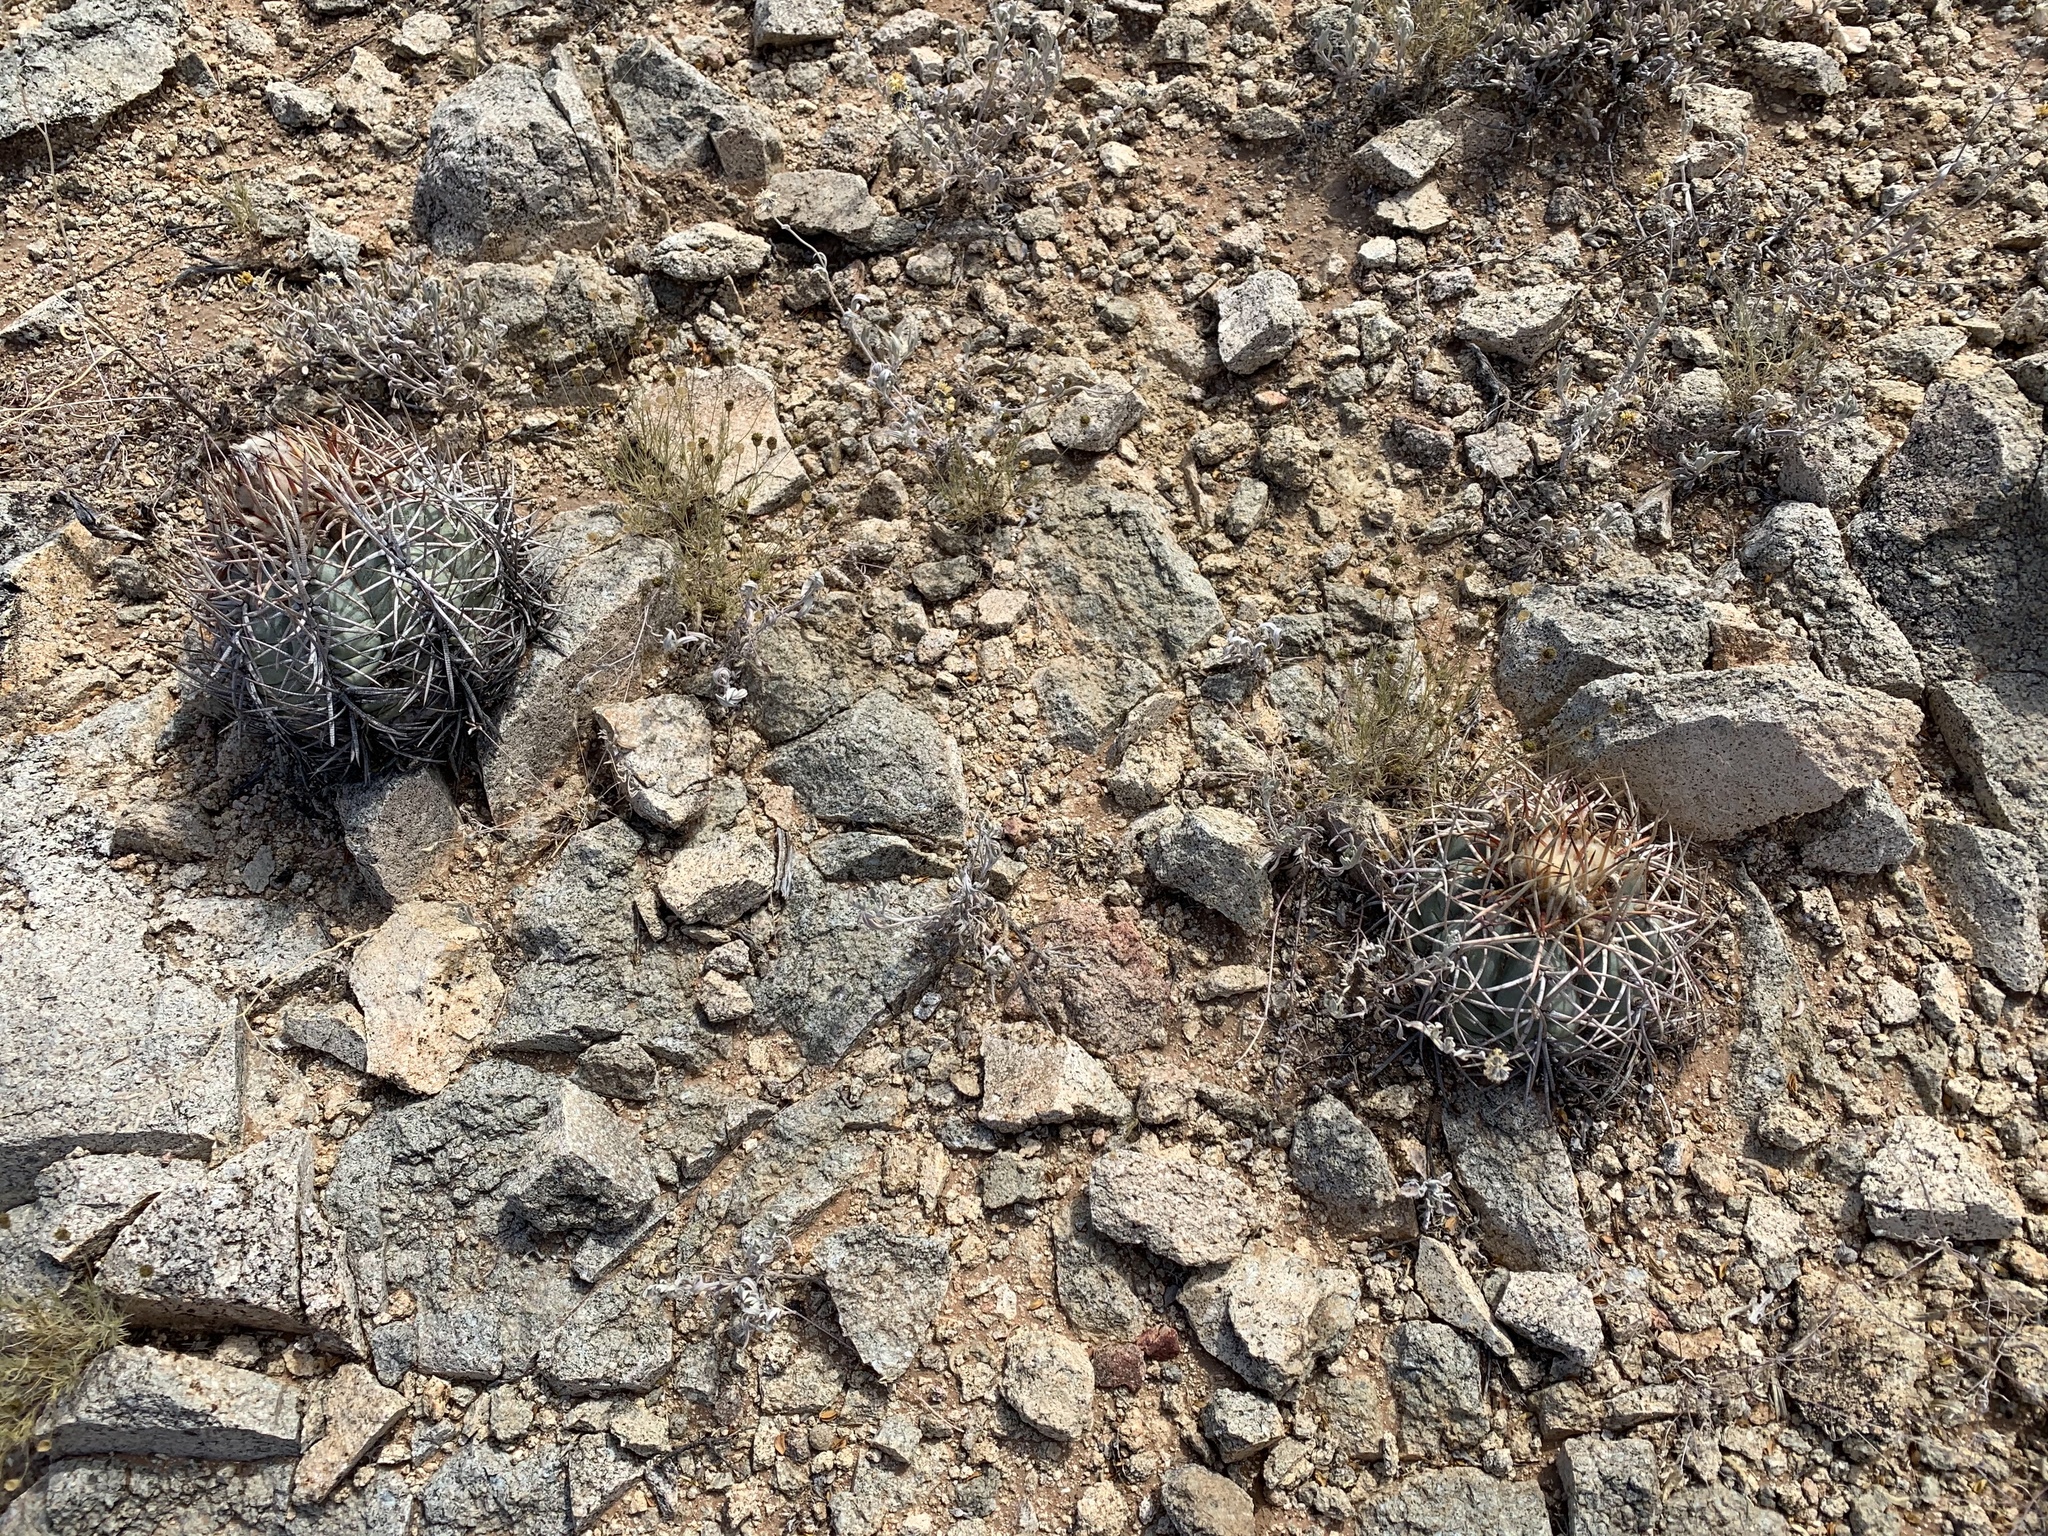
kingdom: Plantae
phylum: Tracheophyta
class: Magnoliopsida
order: Caryophyllales
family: Cactaceae
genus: Echinocactus
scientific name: Echinocactus horizonthalonius
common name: Devilshead
